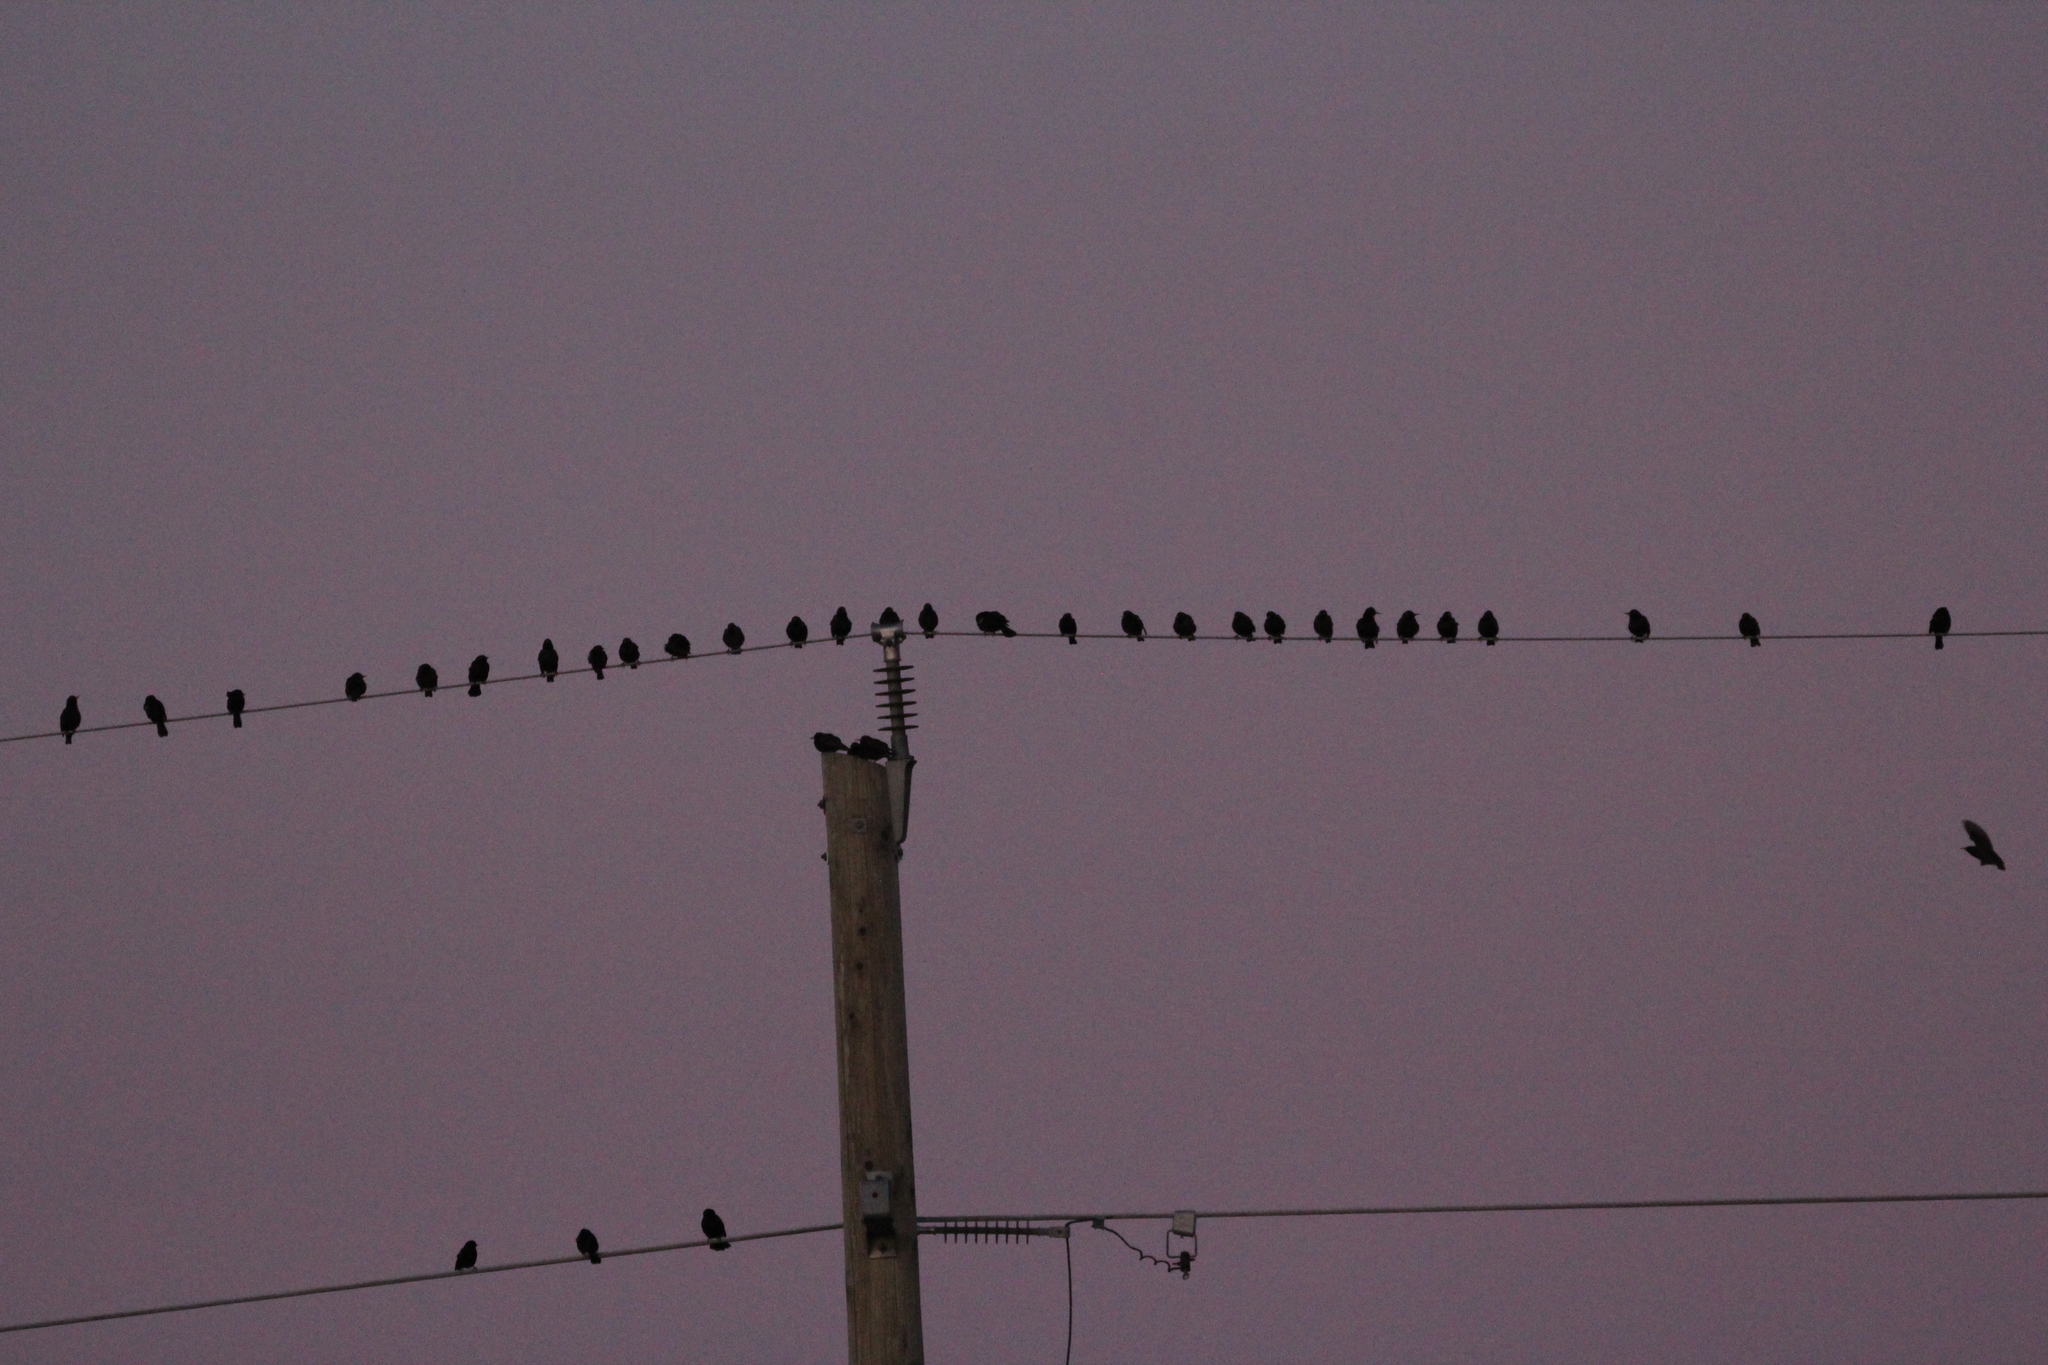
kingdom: Animalia
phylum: Chordata
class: Aves
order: Passeriformes
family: Sturnidae
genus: Sturnus
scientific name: Sturnus vulgaris
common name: Common starling
